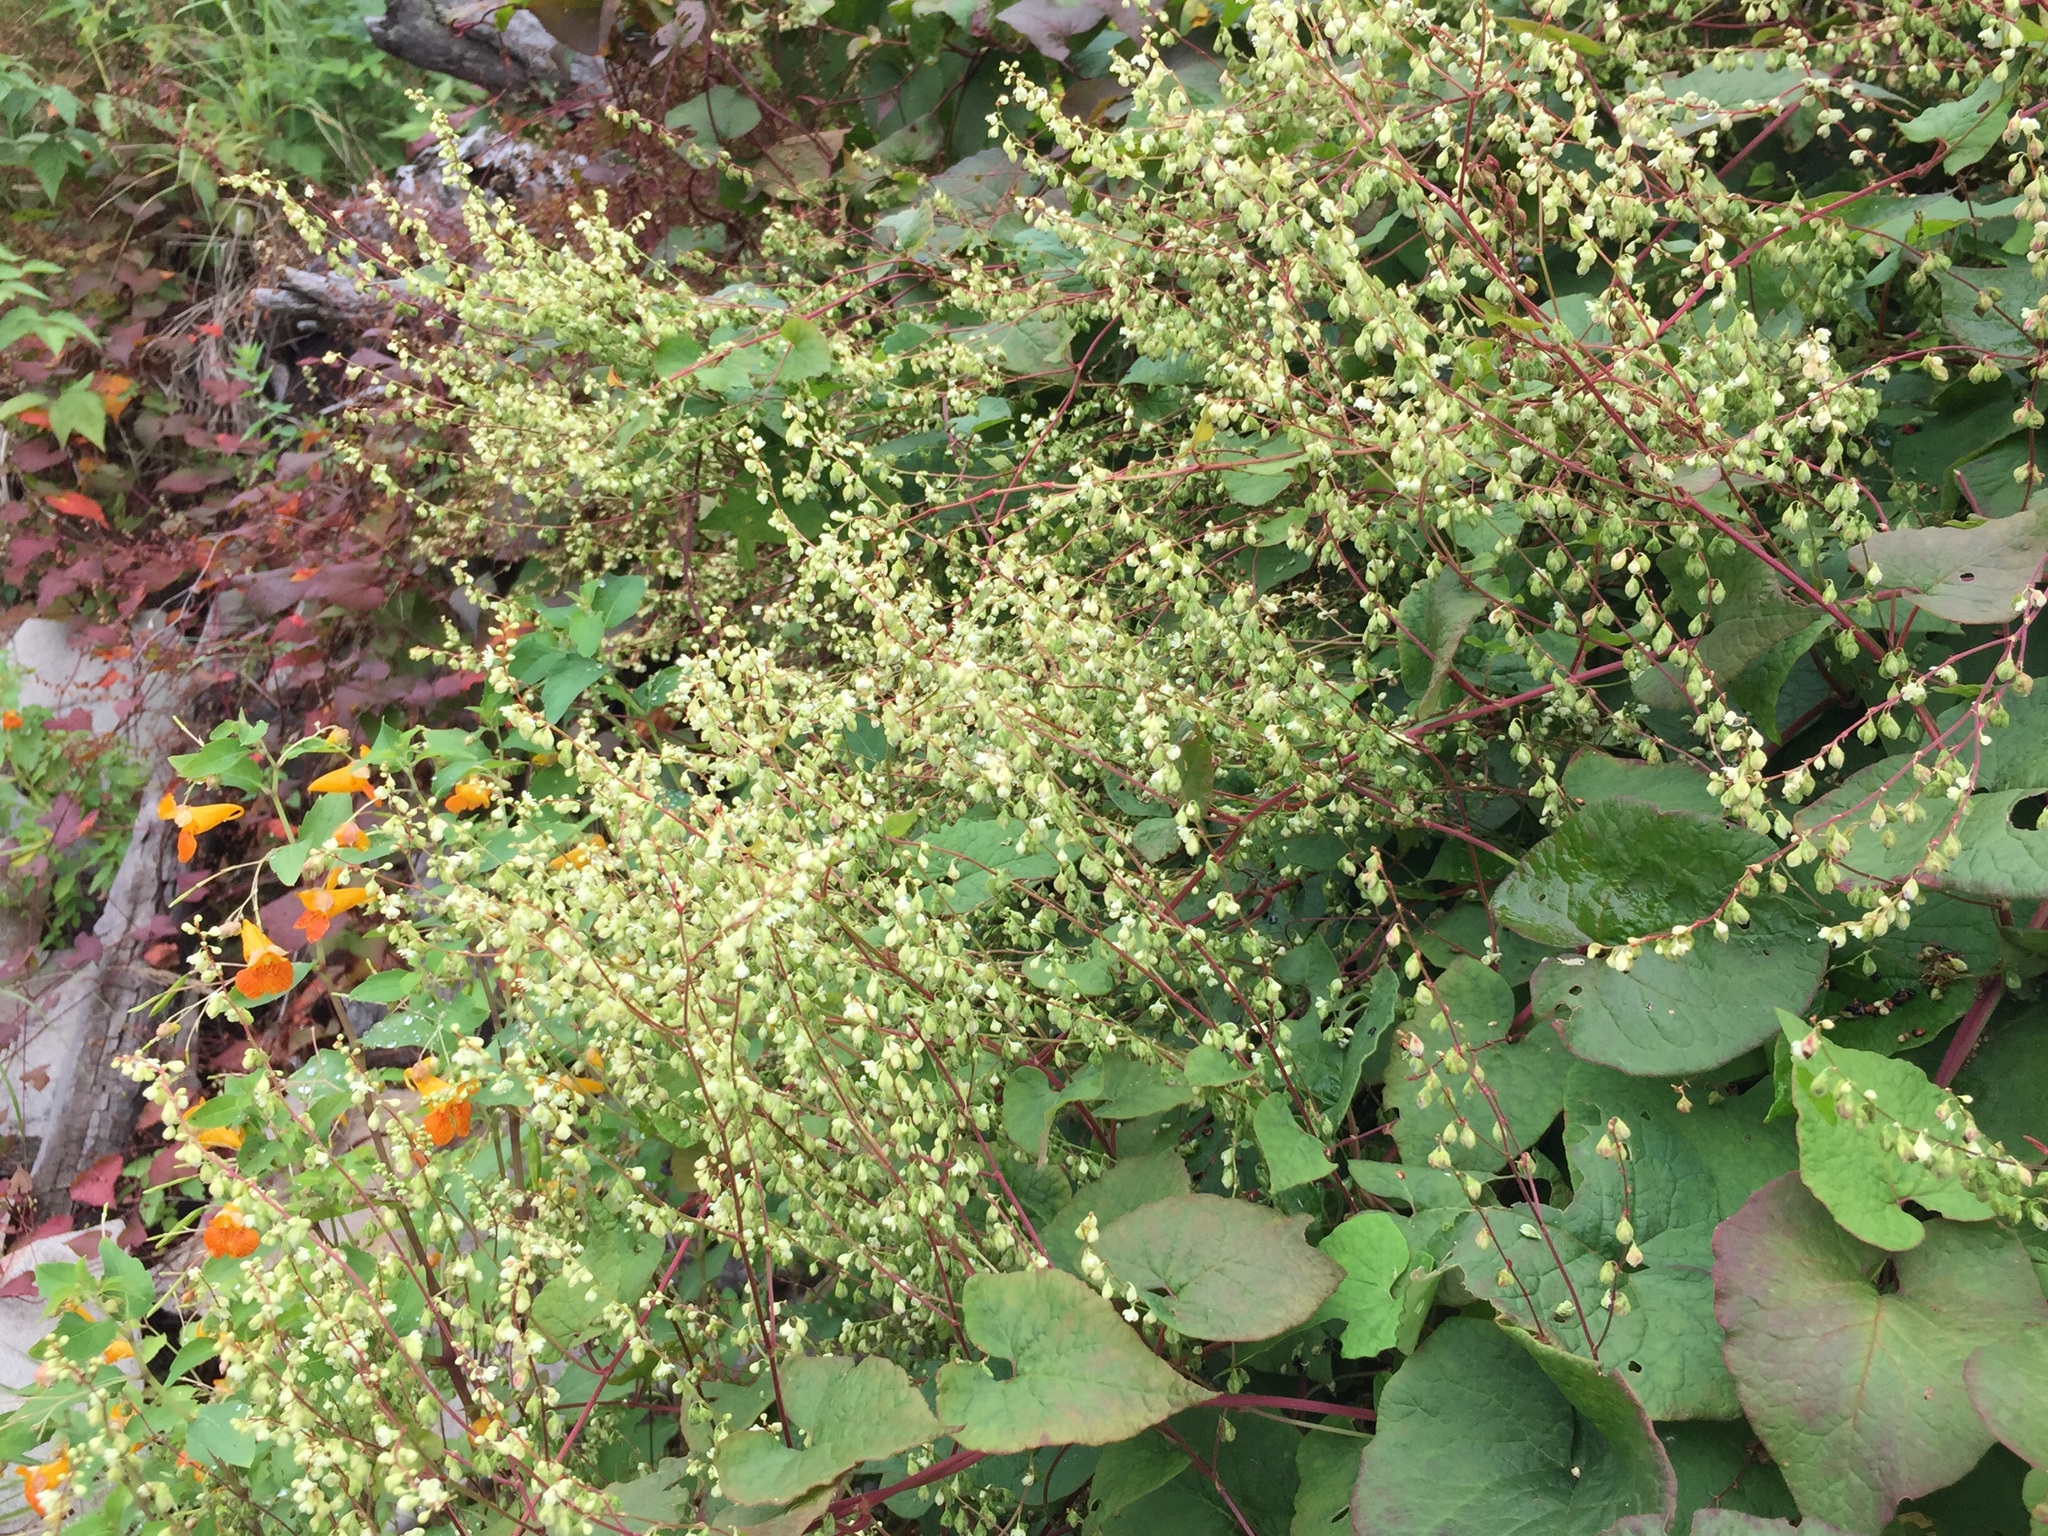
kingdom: Plantae
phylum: Tracheophyta
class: Magnoliopsida
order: Caryophyllales
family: Polygonaceae
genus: Parogonum
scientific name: Parogonum ciliinode
